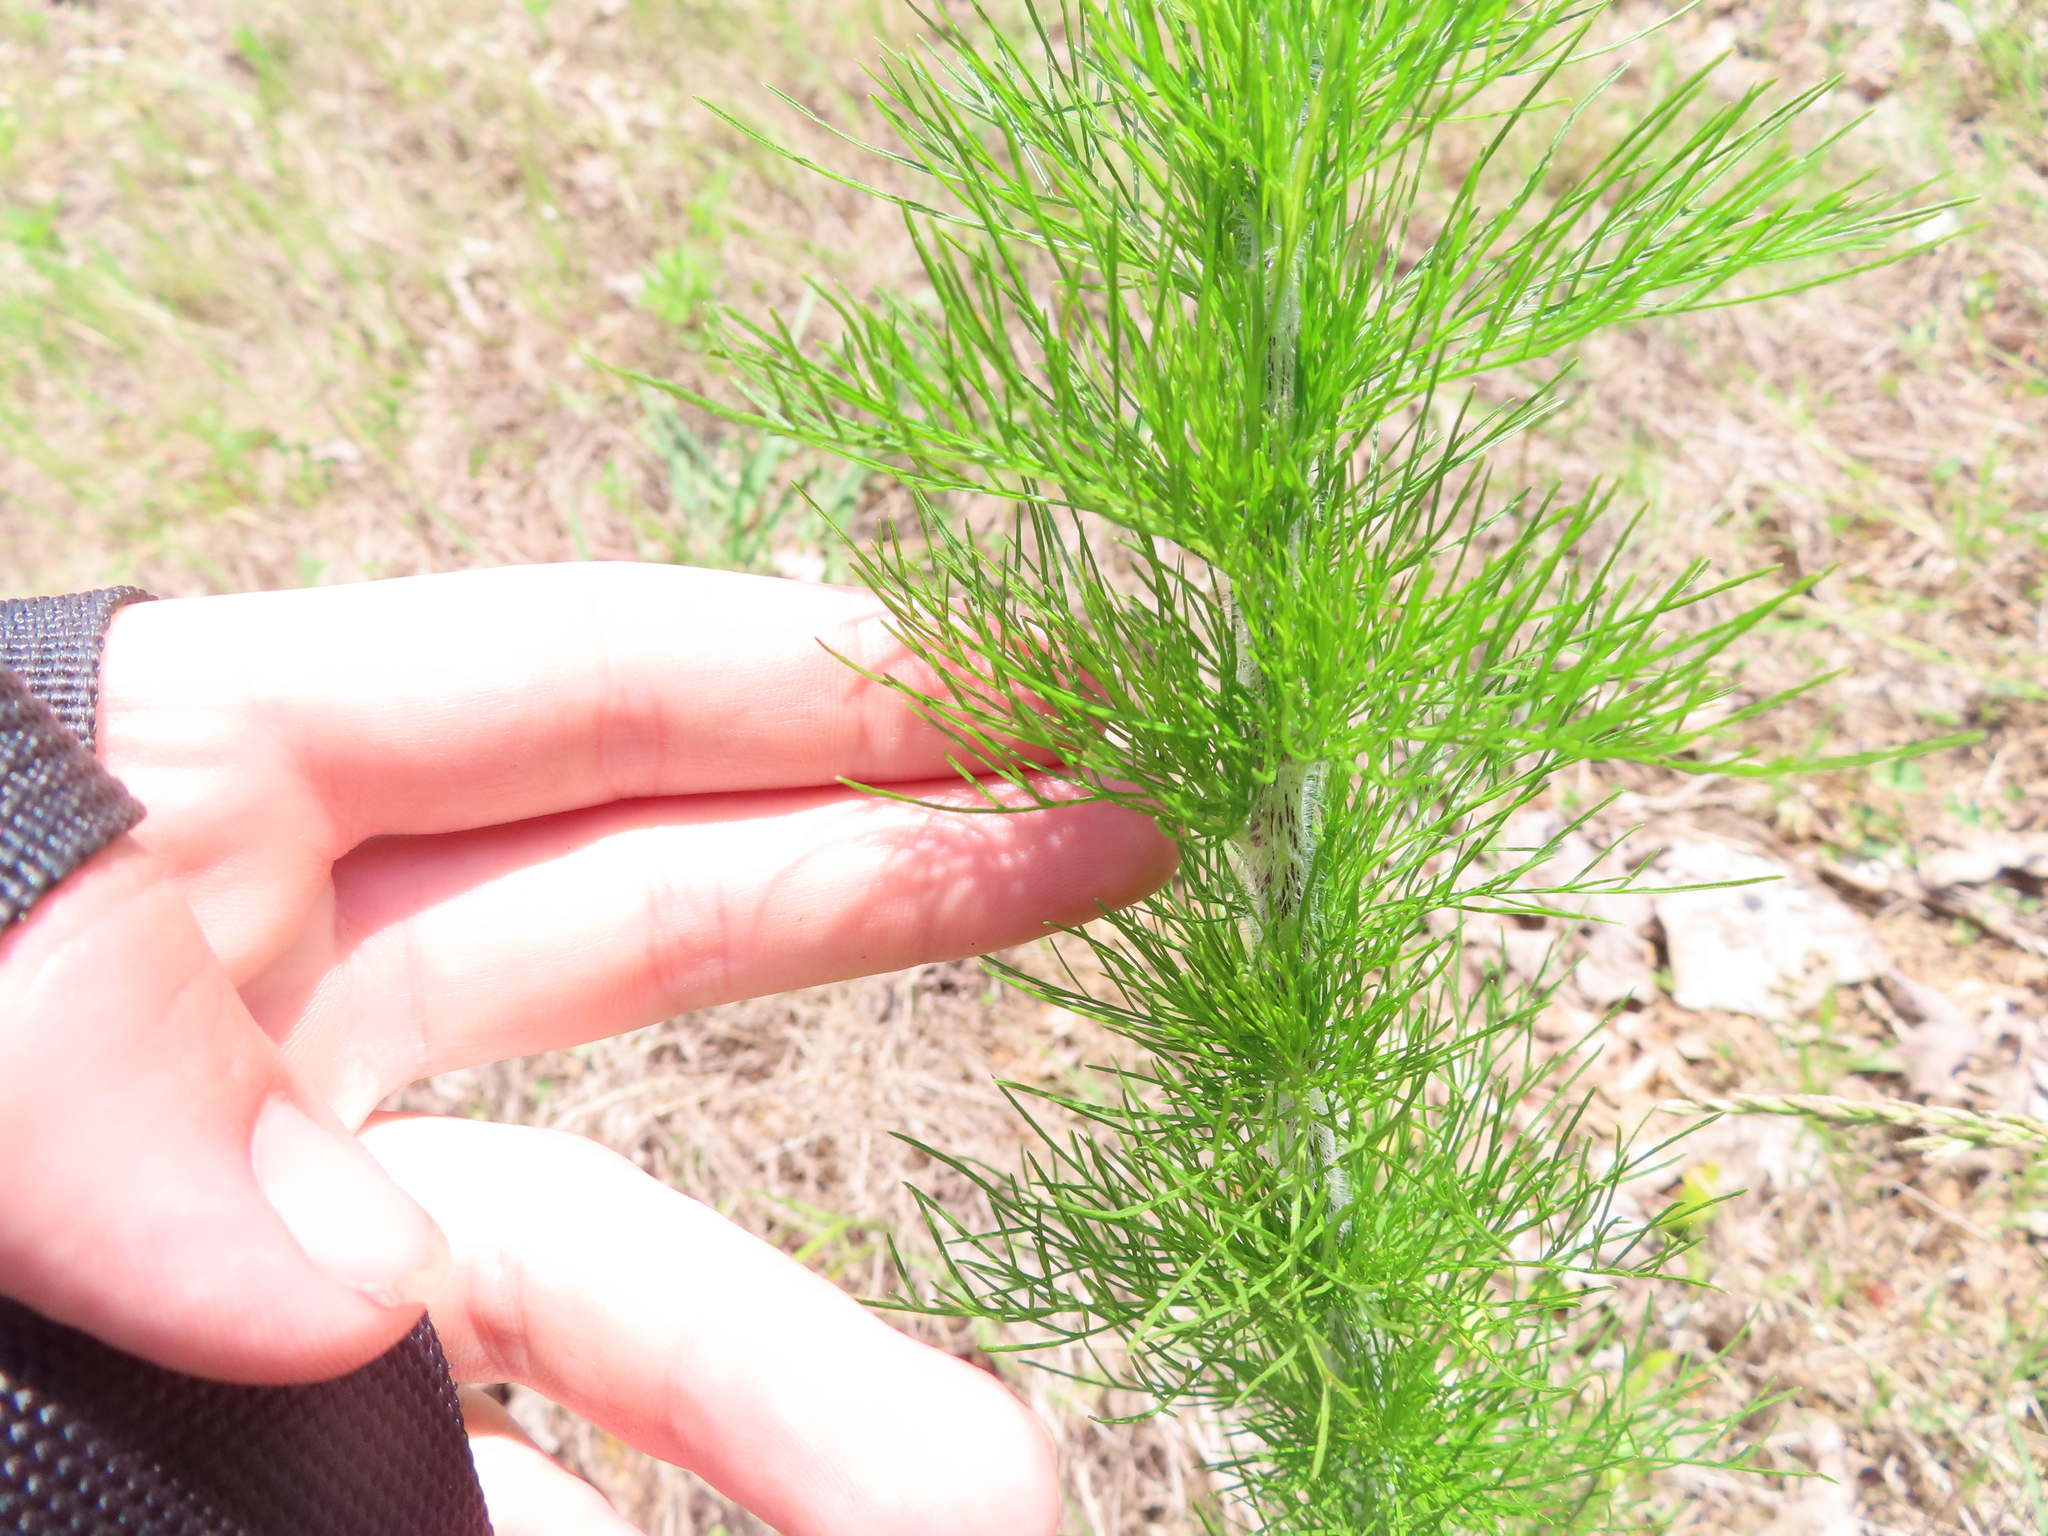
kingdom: Plantae
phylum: Tracheophyta
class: Magnoliopsida
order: Asterales
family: Asteraceae
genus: Eupatorium
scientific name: Eupatorium capillifolium
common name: Dog-fennel
